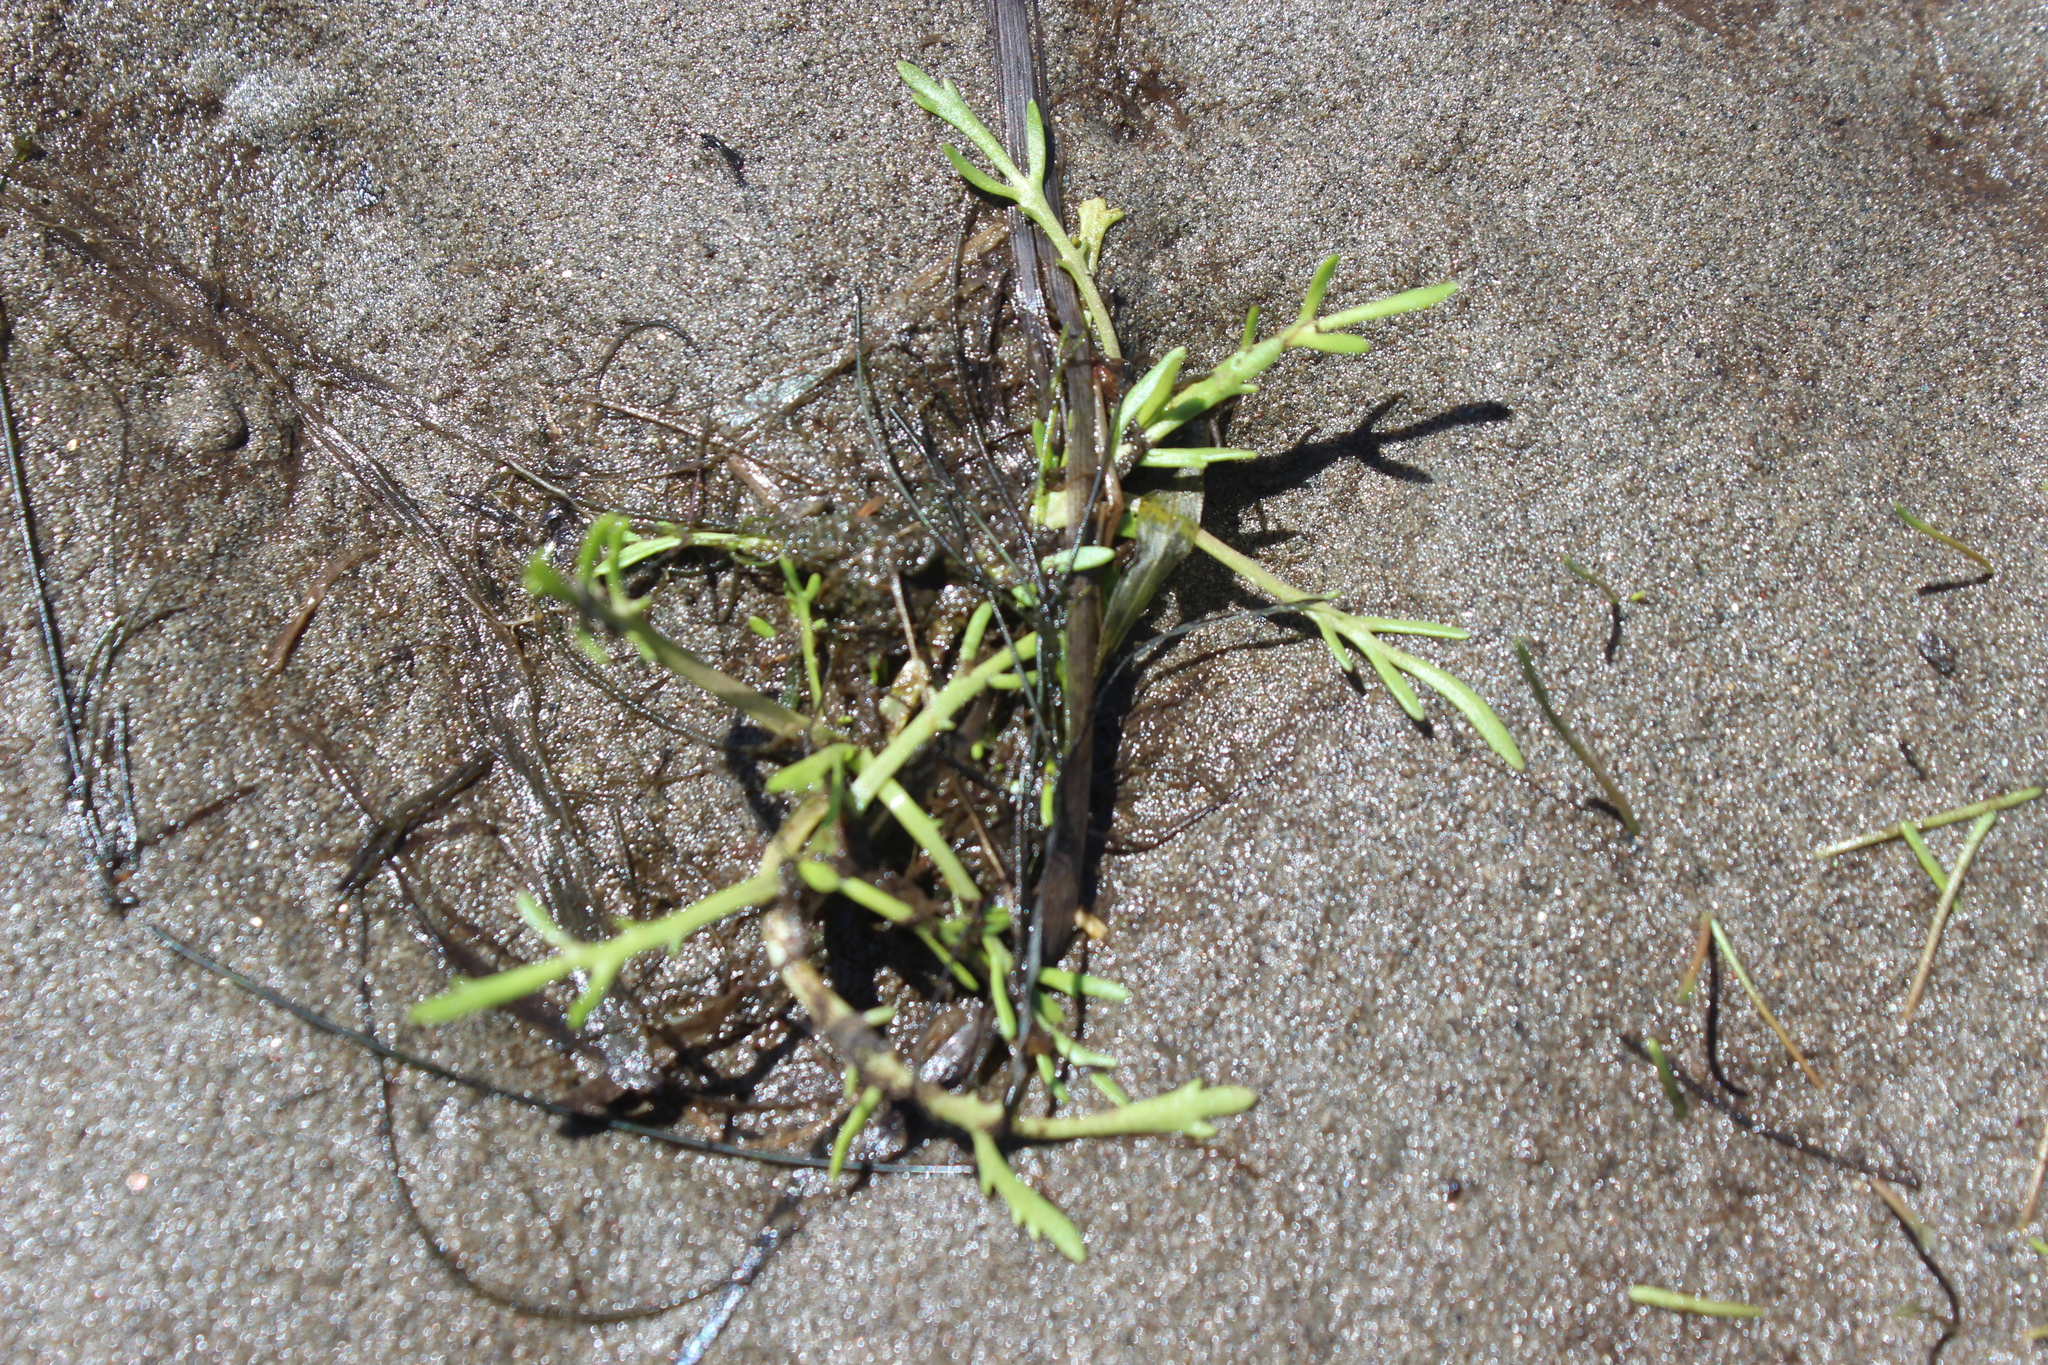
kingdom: Plantae
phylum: Tracheophyta
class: Magnoliopsida
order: Asterales
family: Asteraceae
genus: Cotula
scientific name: Cotula coronopifolia
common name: Buttonweed
